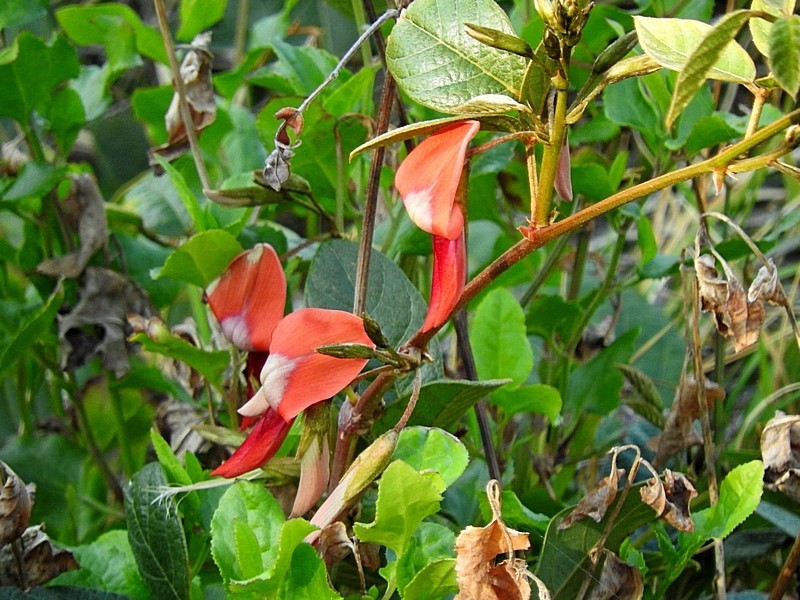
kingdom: Plantae
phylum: Tracheophyta
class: Magnoliopsida
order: Fabales
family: Fabaceae
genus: Kennedia
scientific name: Kennedia rubicunda
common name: Red kennedy-pea
